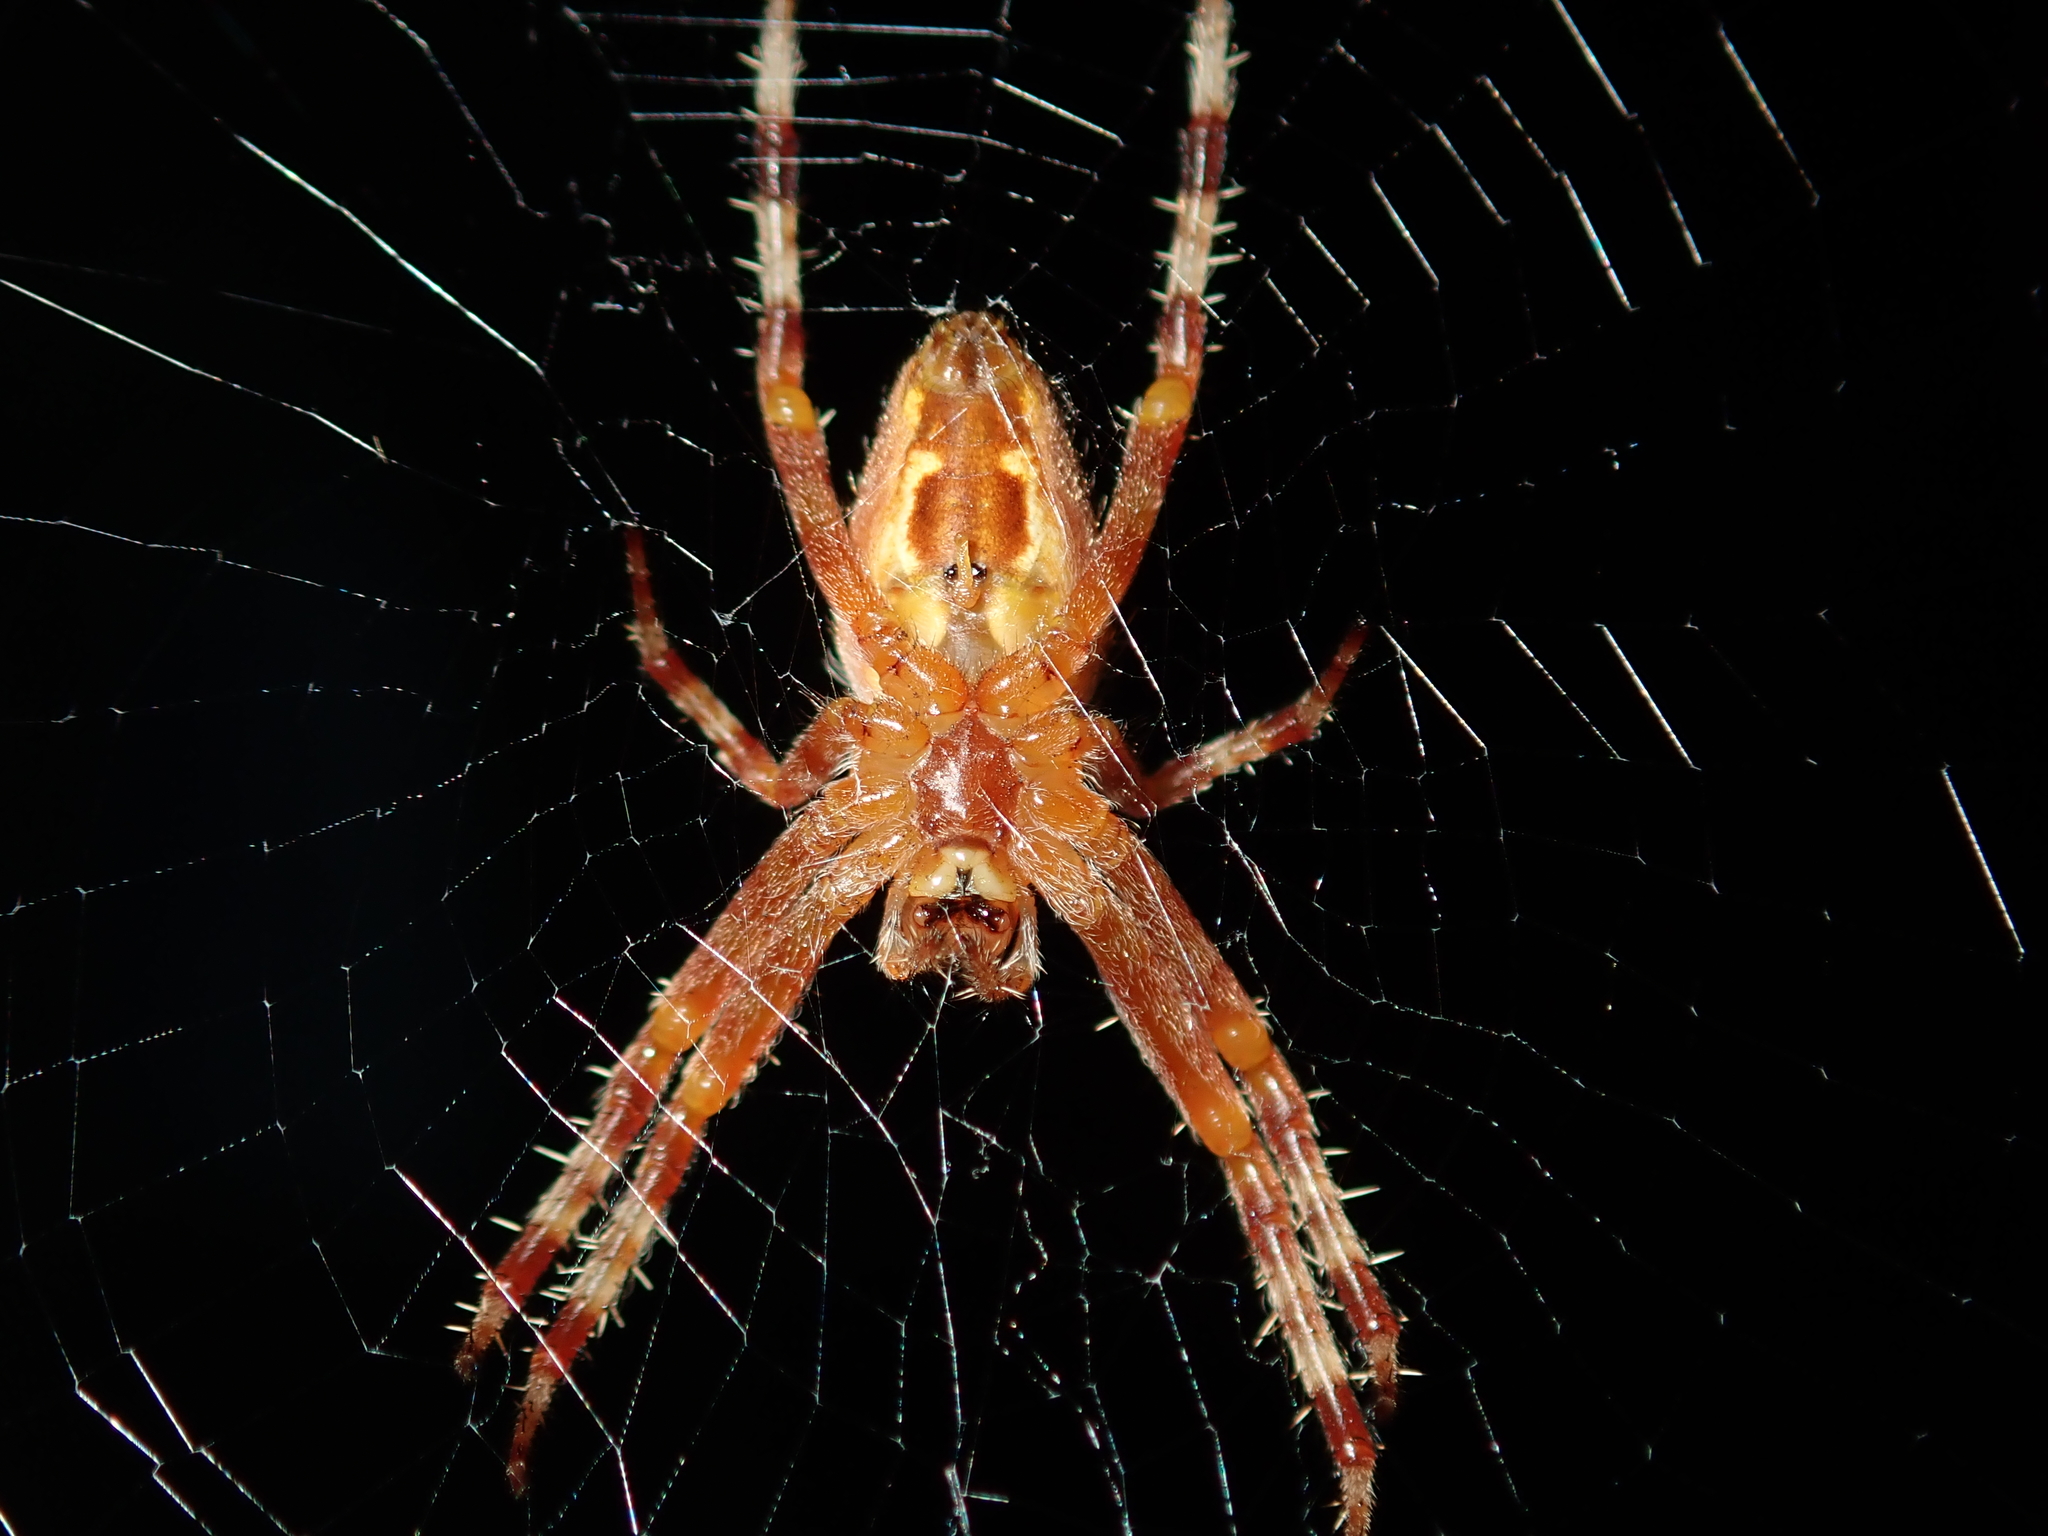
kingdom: Animalia
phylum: Arthropoda
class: Arachnida
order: Araneae
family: Araneidae
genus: Araneus
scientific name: Araneus diadematus
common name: Cross orbweaver
